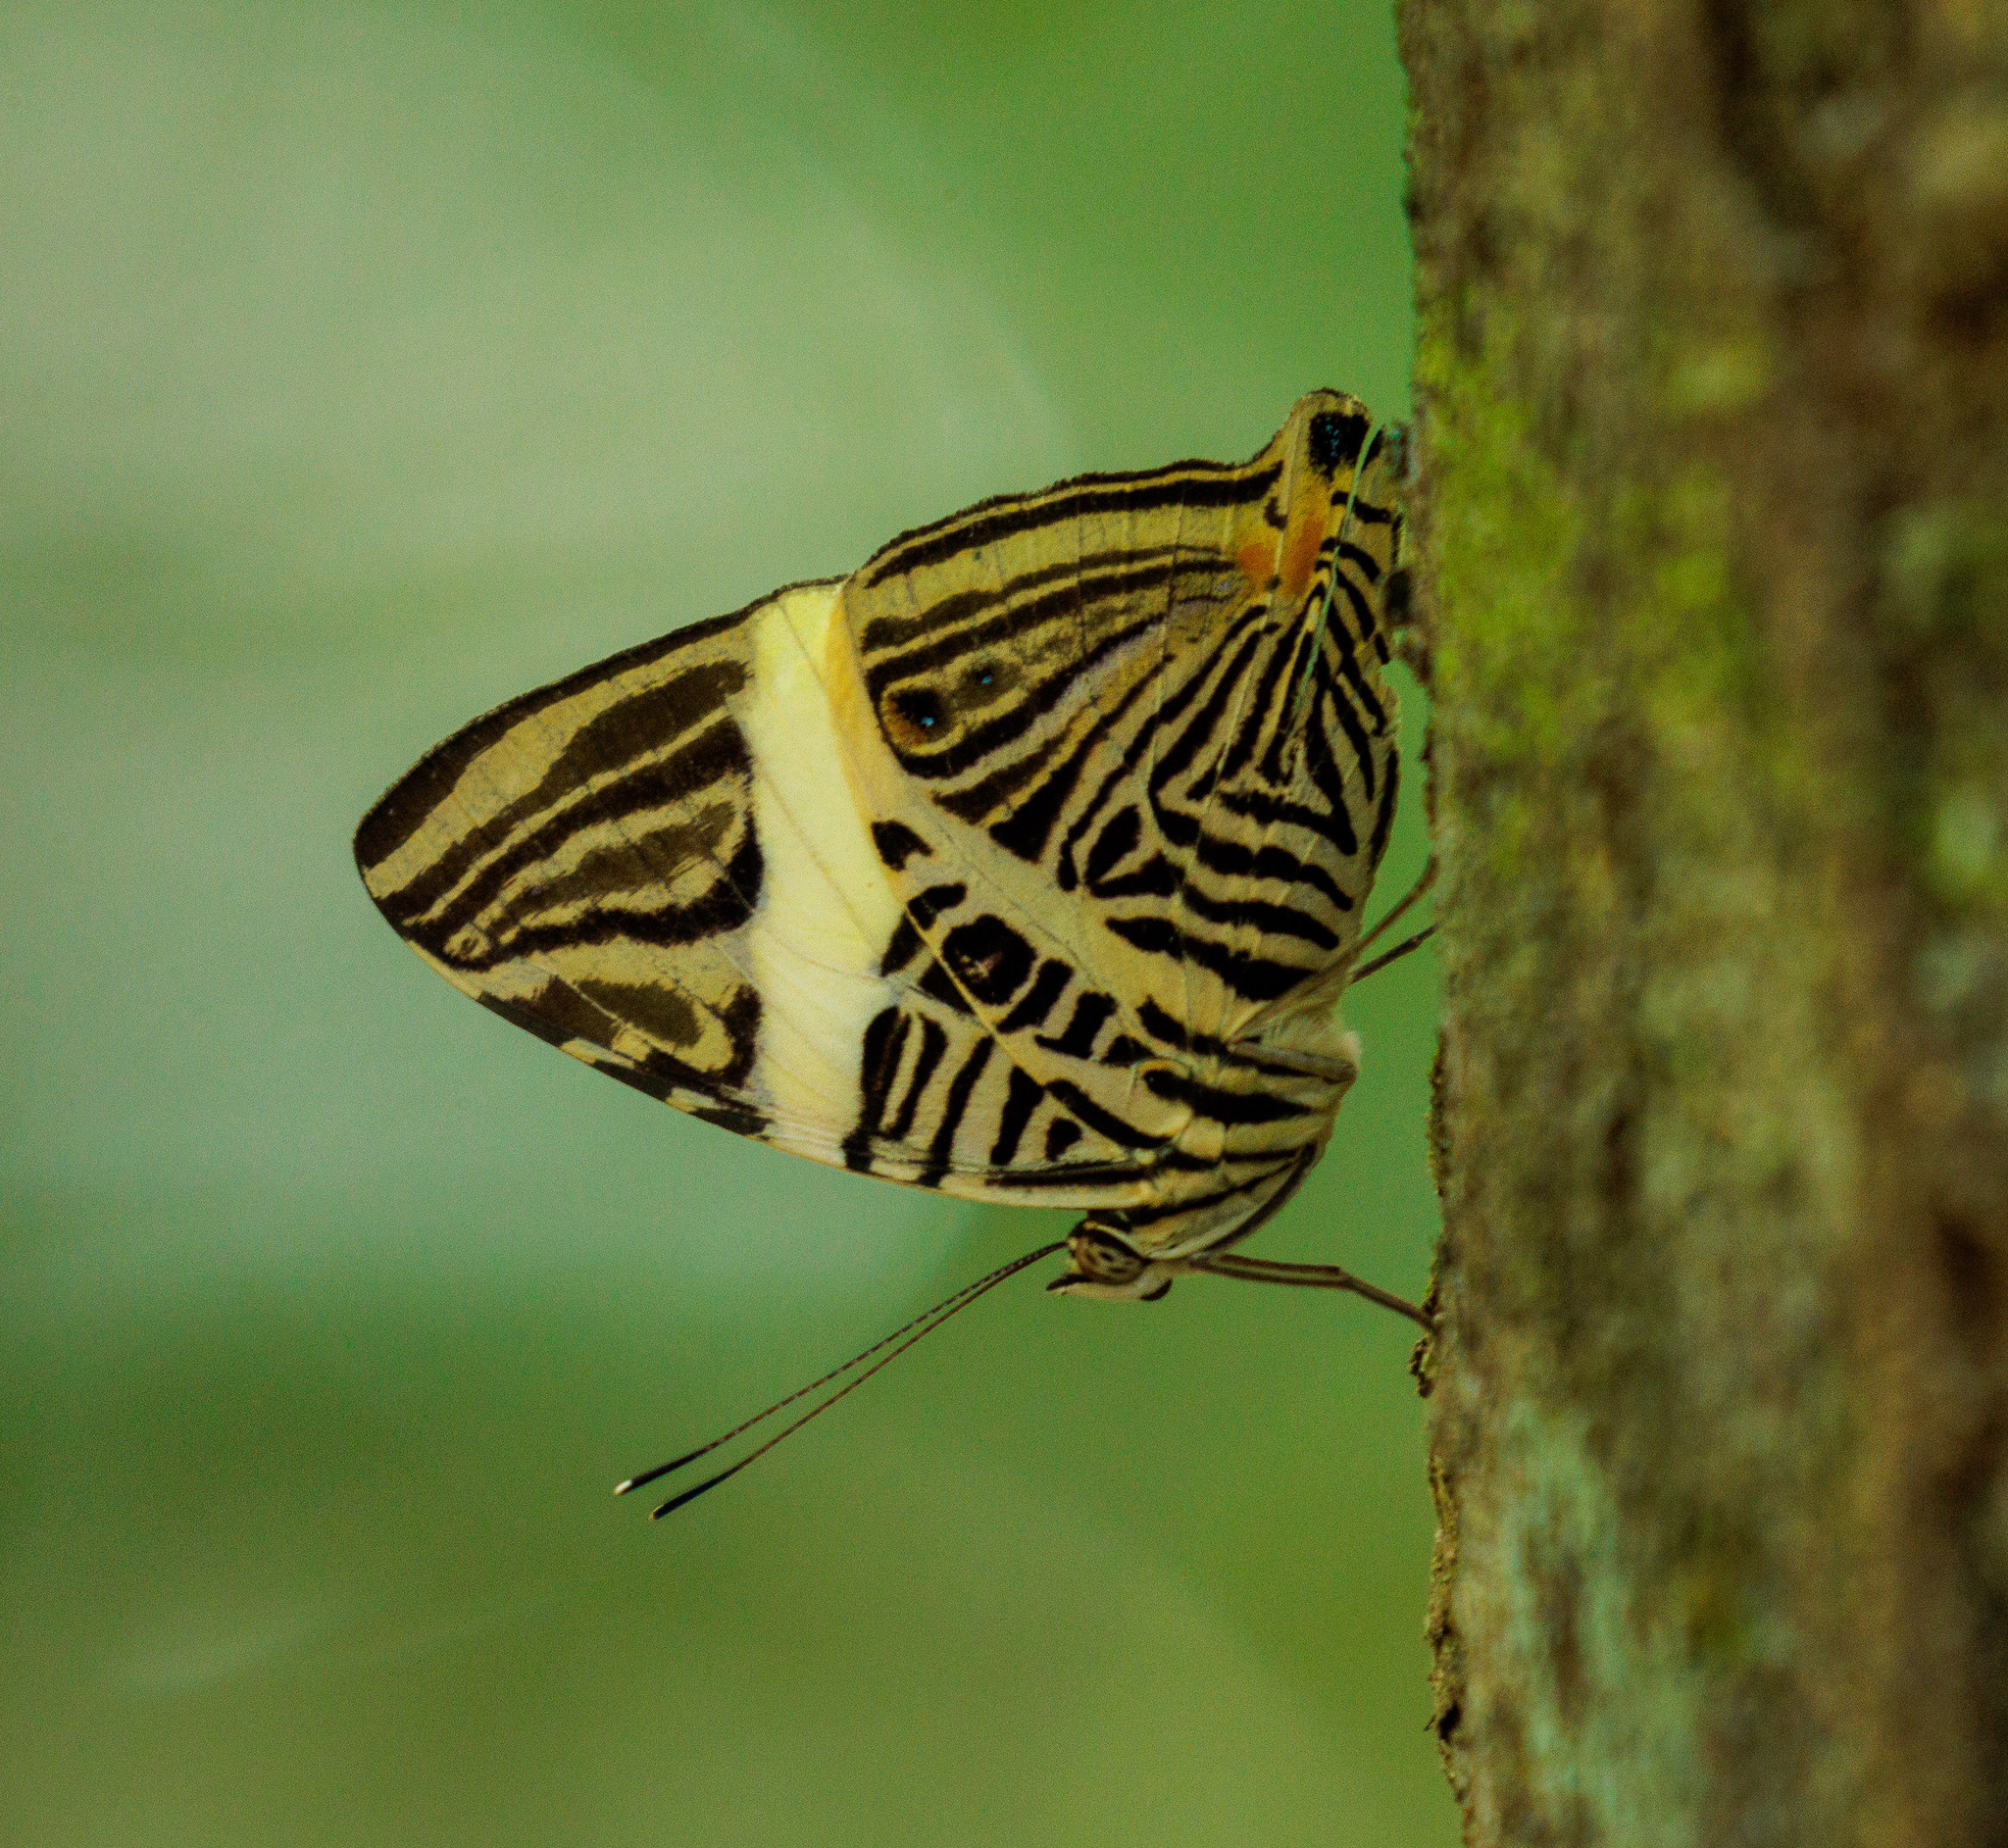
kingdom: Animalia
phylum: Arthropoda
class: Insecta
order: Lepidoptera
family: Nymphalidae
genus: Colobura
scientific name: Colobura dirce
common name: Dirce beauty
